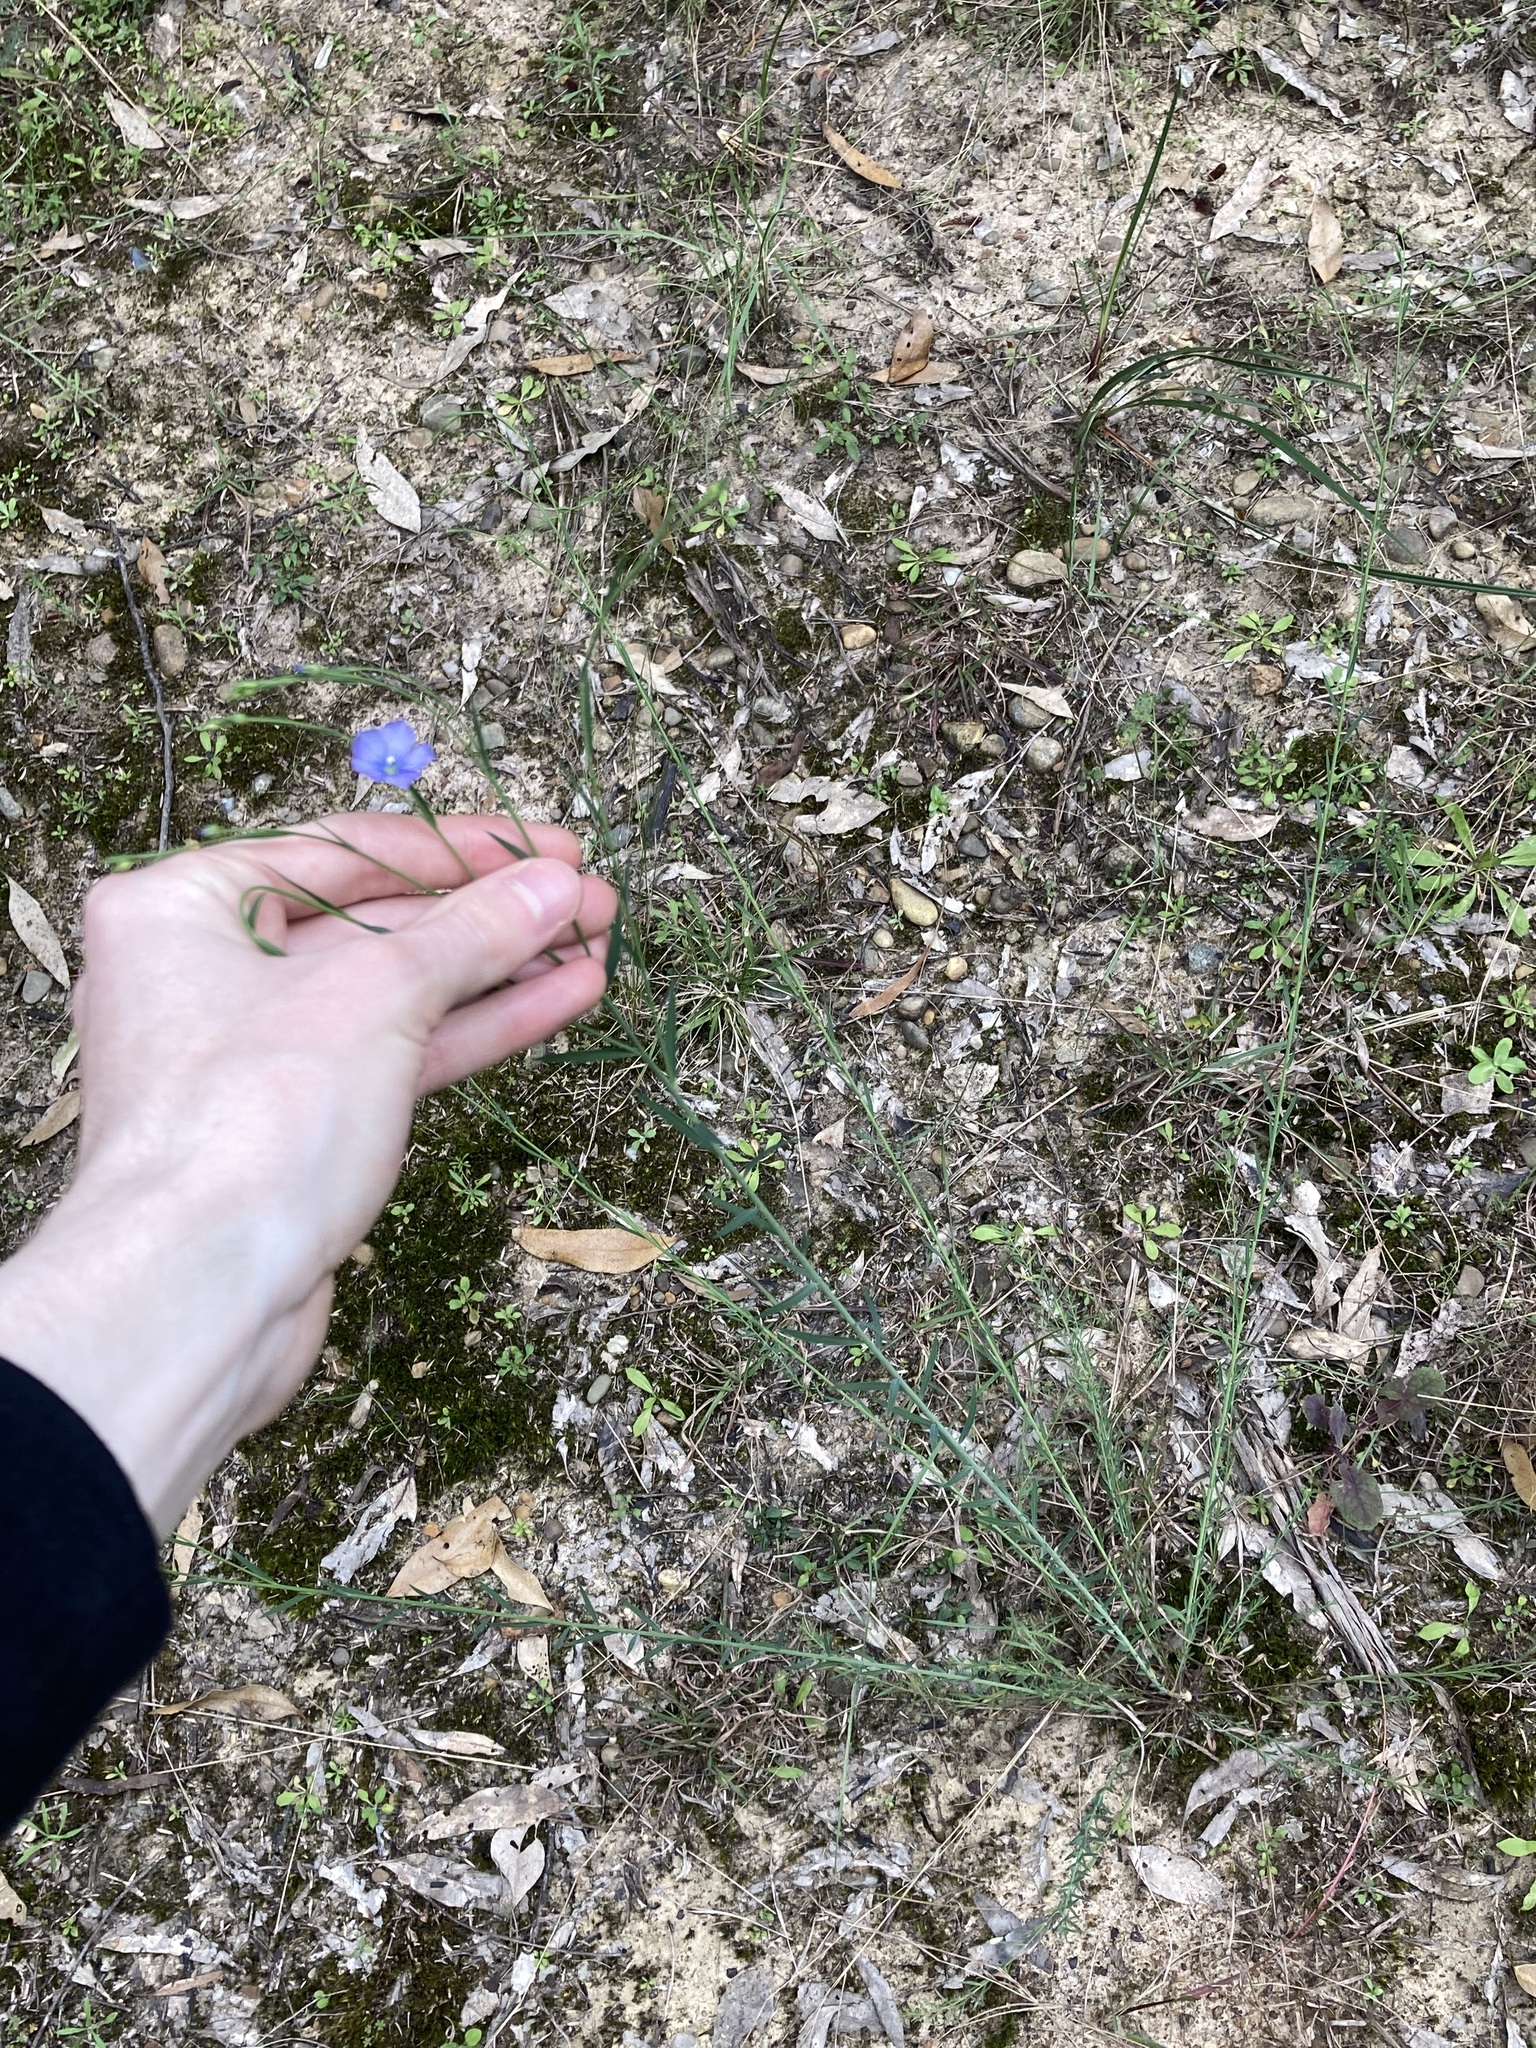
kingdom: Plantae
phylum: Tracheophyta
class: Magnoliopsida
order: Malpighiales
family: Linaceae
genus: Linum
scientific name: Linum marginale
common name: Wild flax
